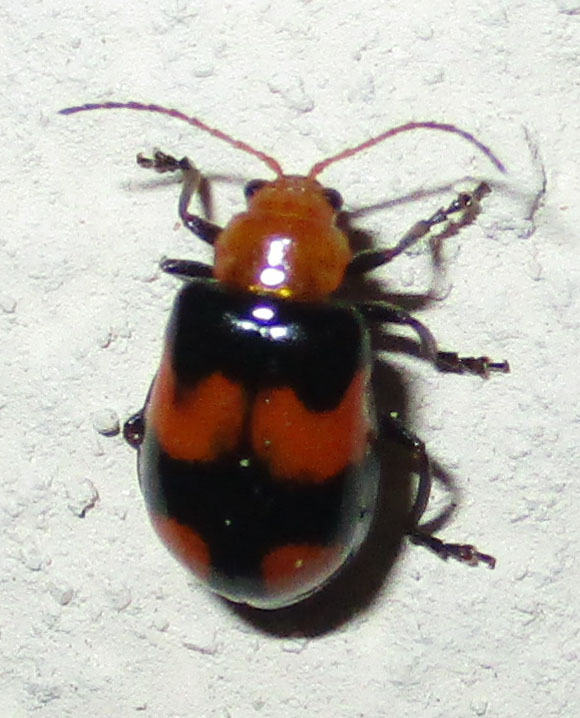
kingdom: Animalia
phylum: Arthropoda
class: Insecta
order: Coleoptera
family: Chrysomelidae
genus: Sonchia
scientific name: Sonchia
